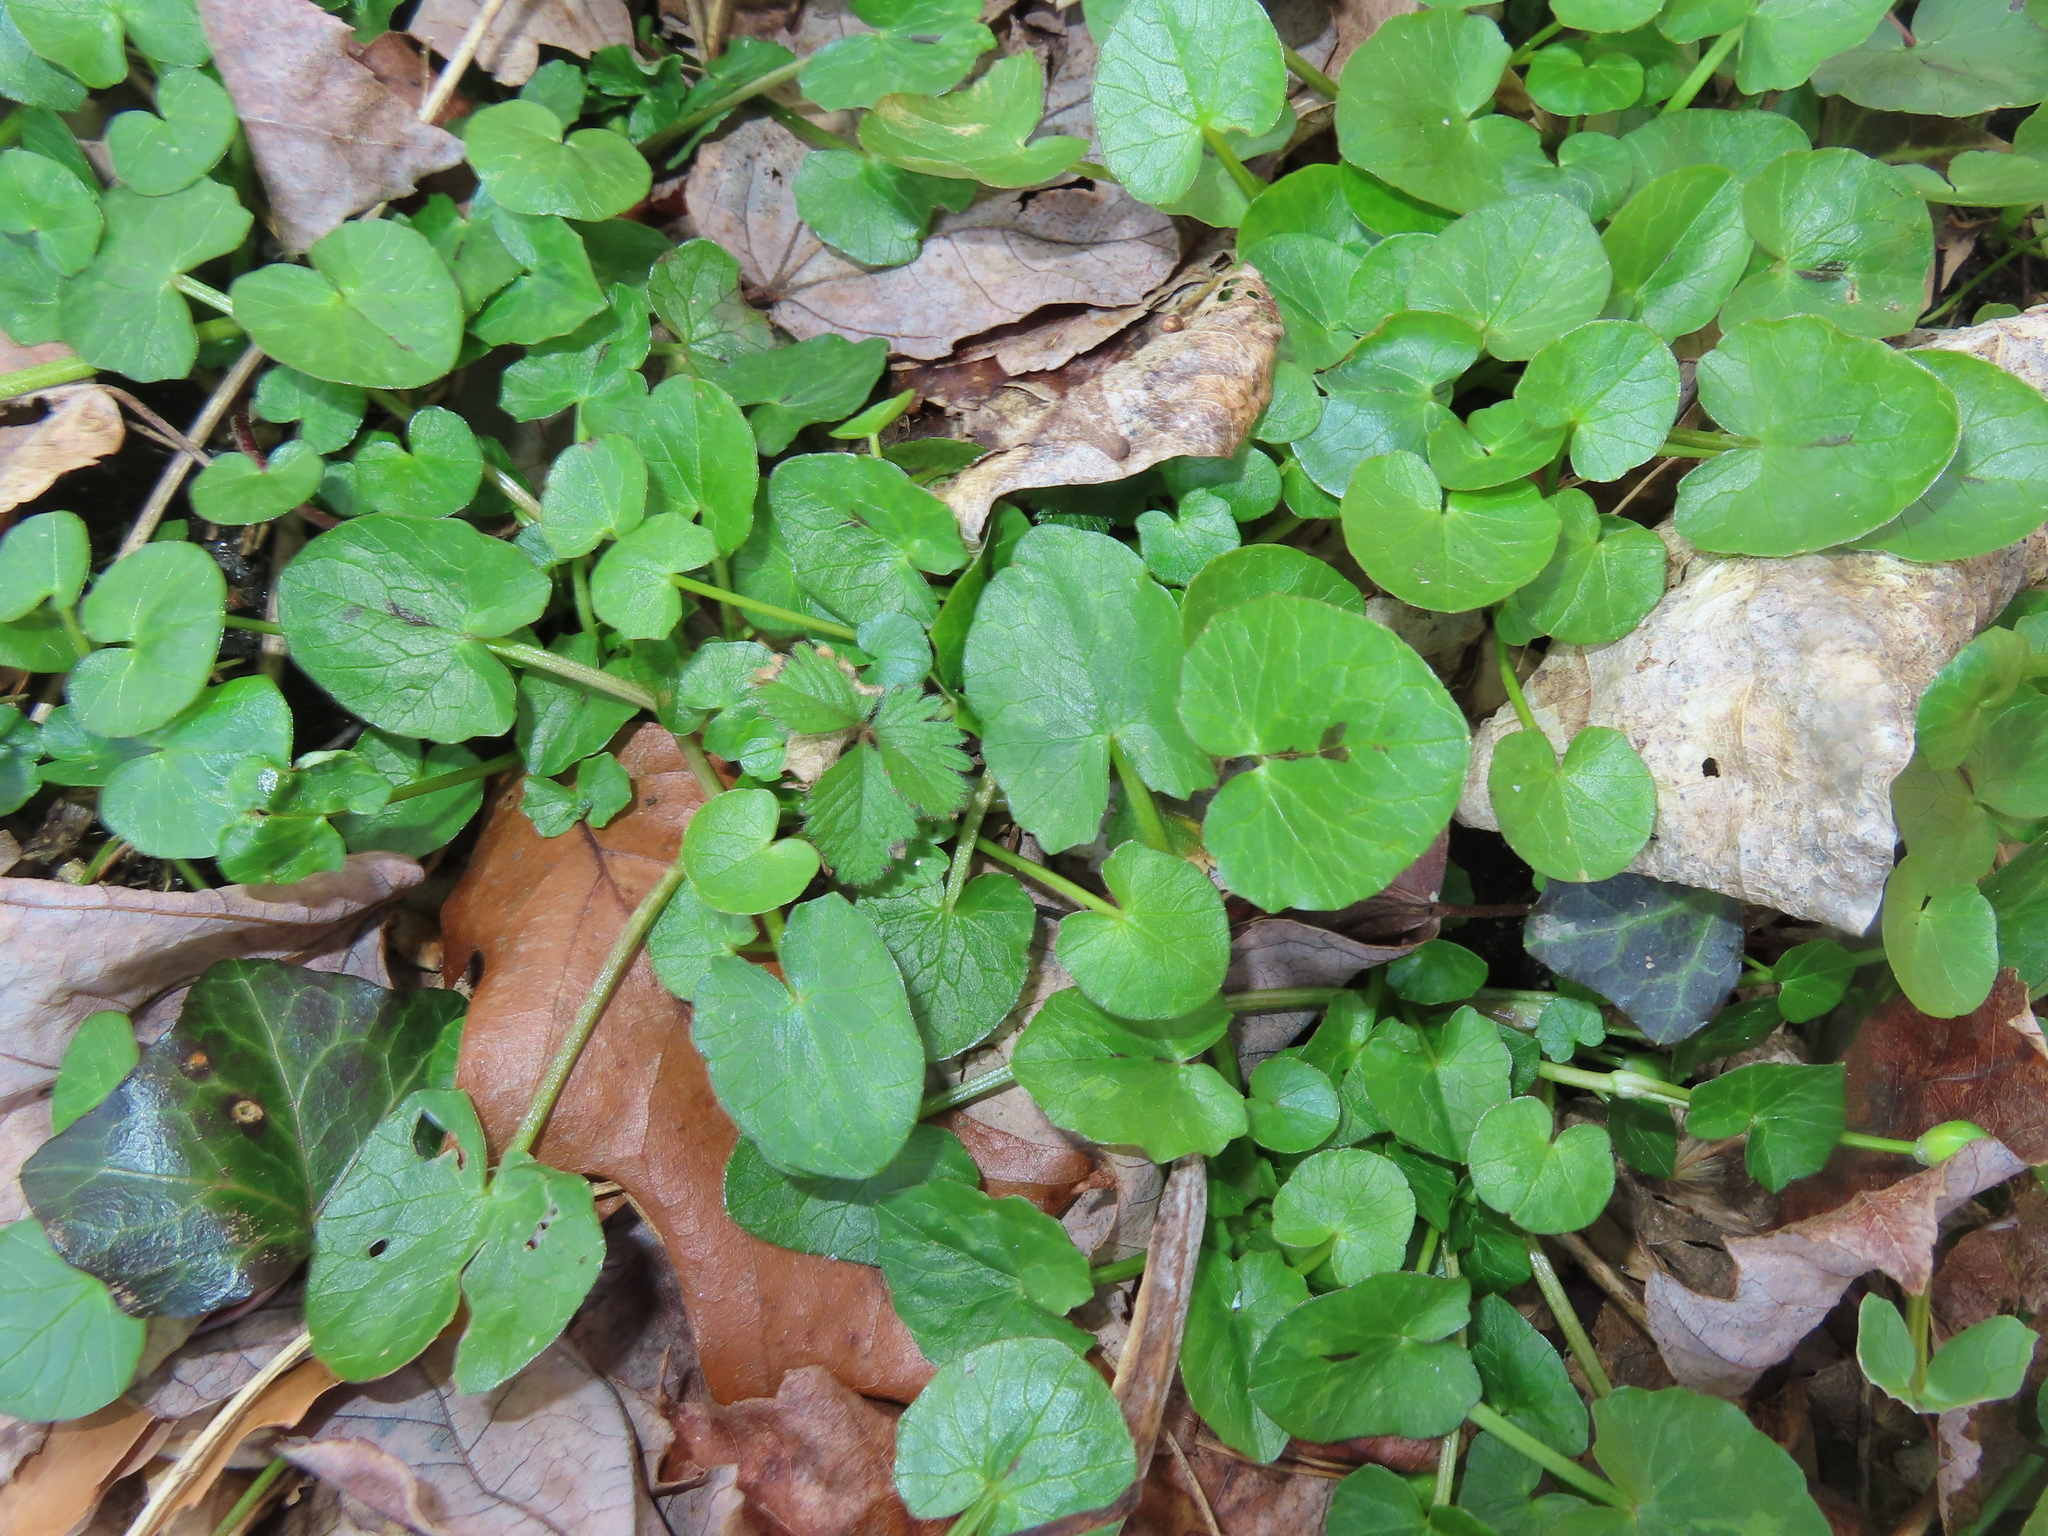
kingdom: Plantae
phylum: Tracheophyta
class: Magnoliopsida
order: Ranunculales
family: Ranunculaceae
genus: Ficaria
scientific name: Ficaria verna
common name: Lesser celandine
